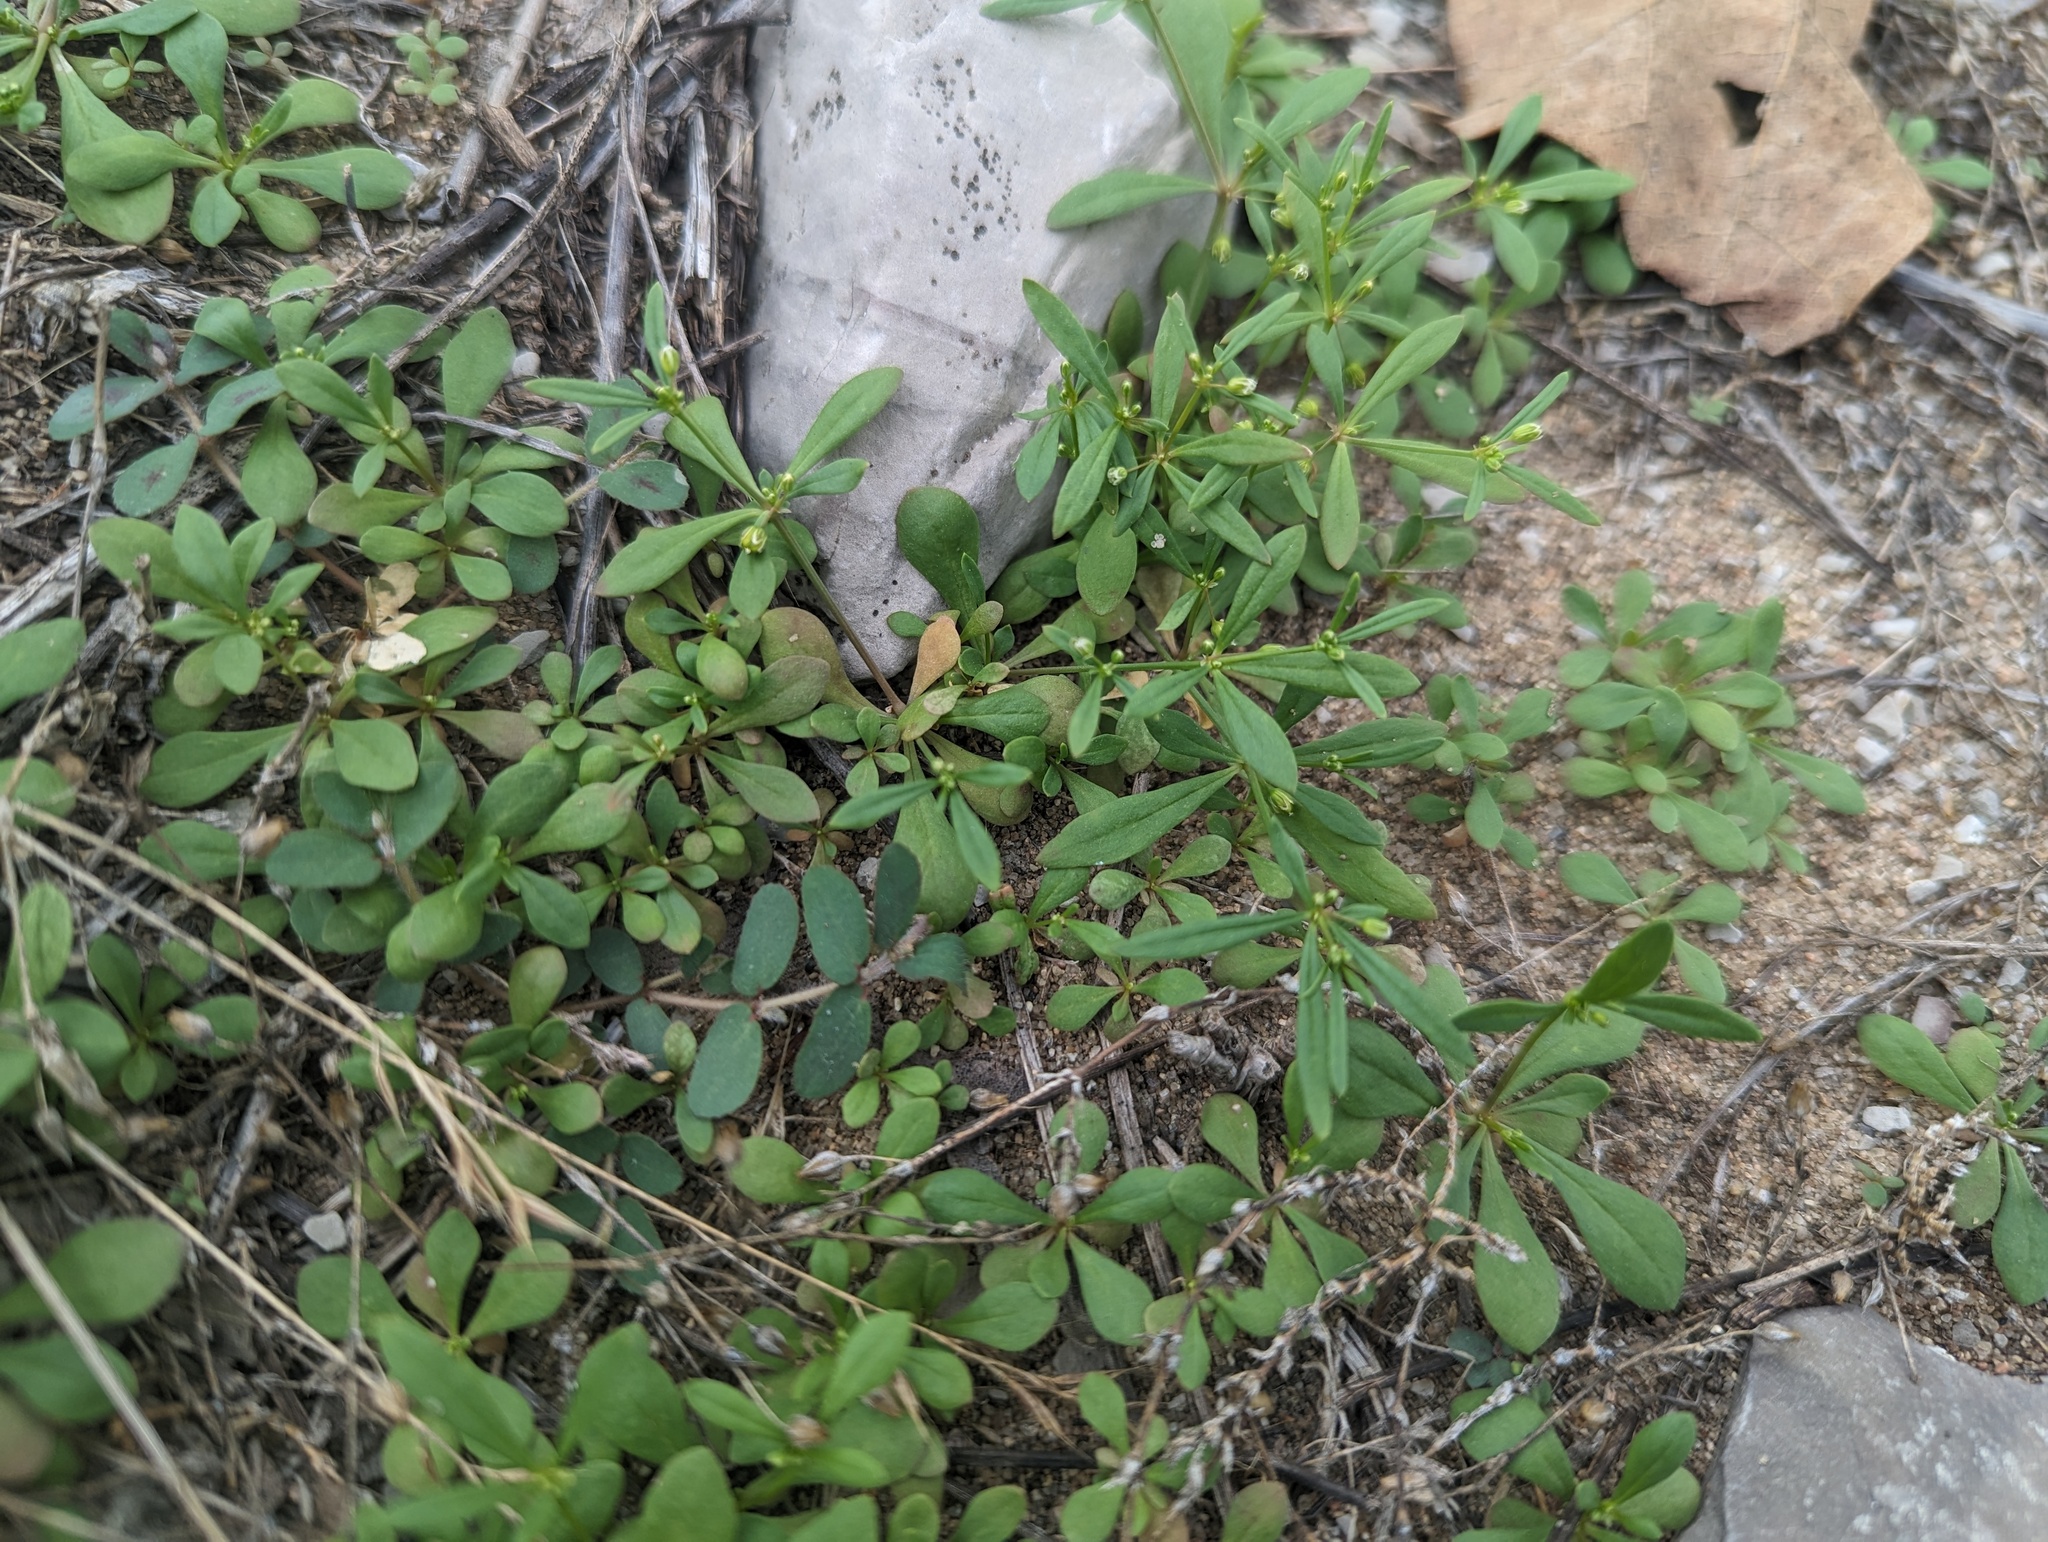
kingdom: Plantae
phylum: Tracheophyta
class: Magnoliopsida
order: Caryophyllales
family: Molluginaceae
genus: Mollugo
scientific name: Mollugo verticillata
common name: Green carpetweed
